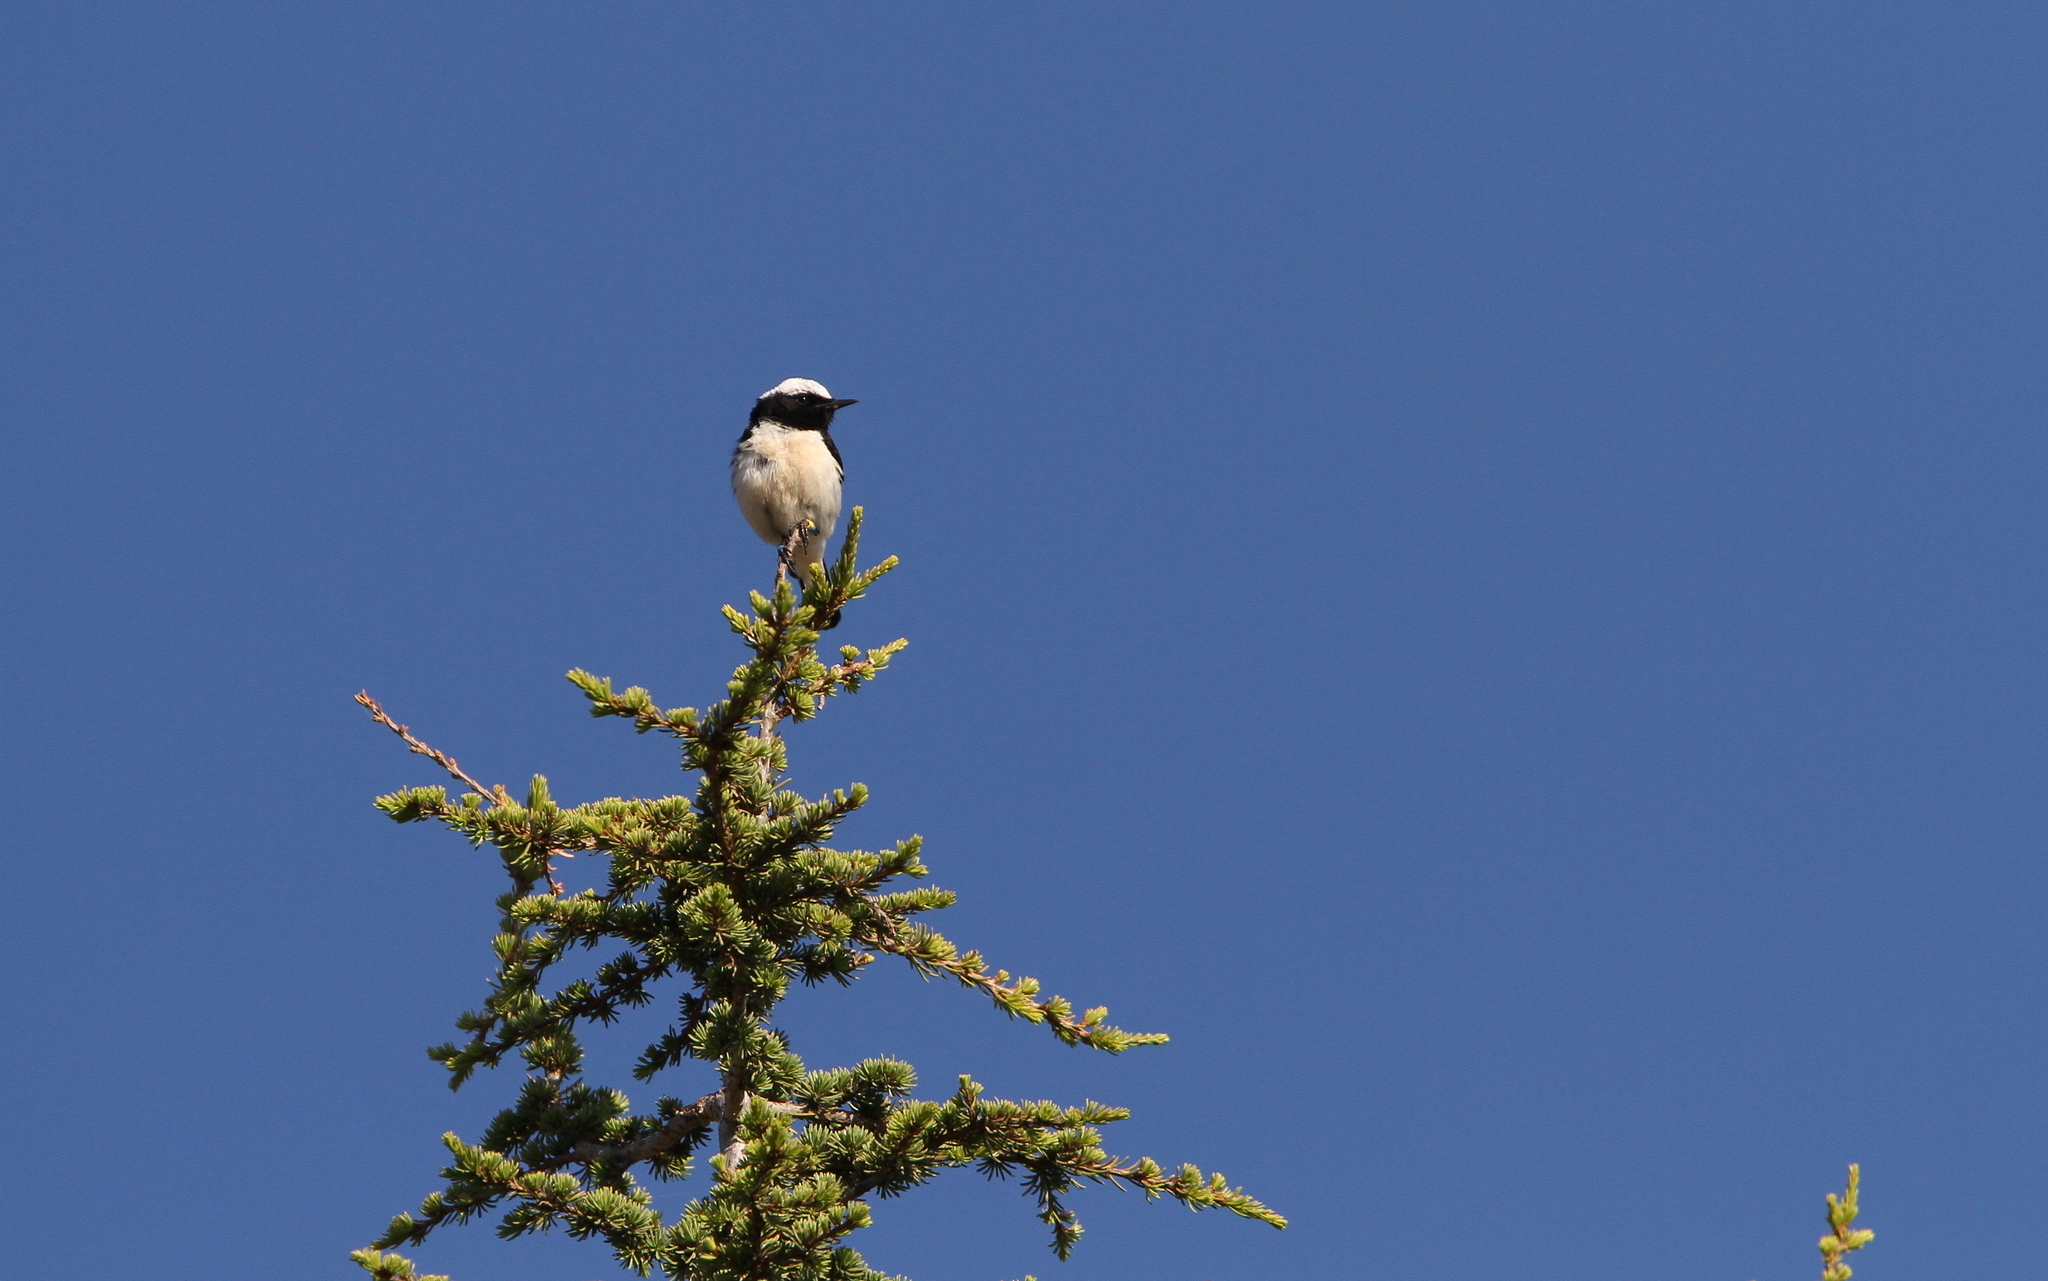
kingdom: Animalia
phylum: Chordata
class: Aves
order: Passeriformes
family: Muscicapidae
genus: Oenanthe
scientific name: Oenanthe cypriaca
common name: Cyprus wheatear
